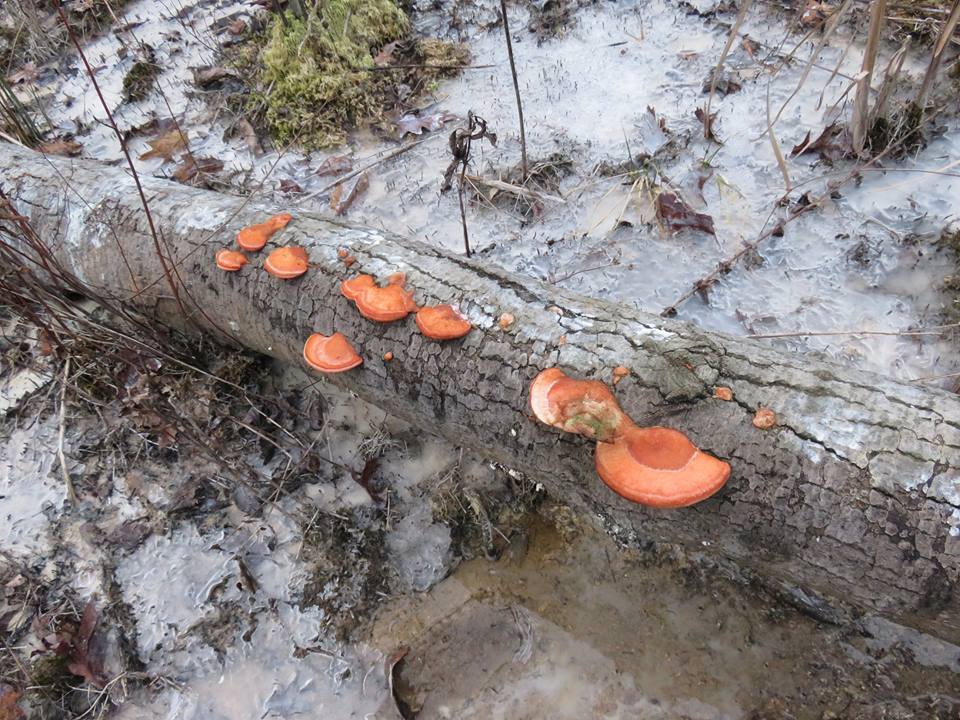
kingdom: Fungi
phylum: Basidiomycota
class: Agaricomycetes
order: Polyporales
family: Polyporaceae
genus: Trametes
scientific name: Trametes cinnabarina
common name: Northern cinnabar polypore
